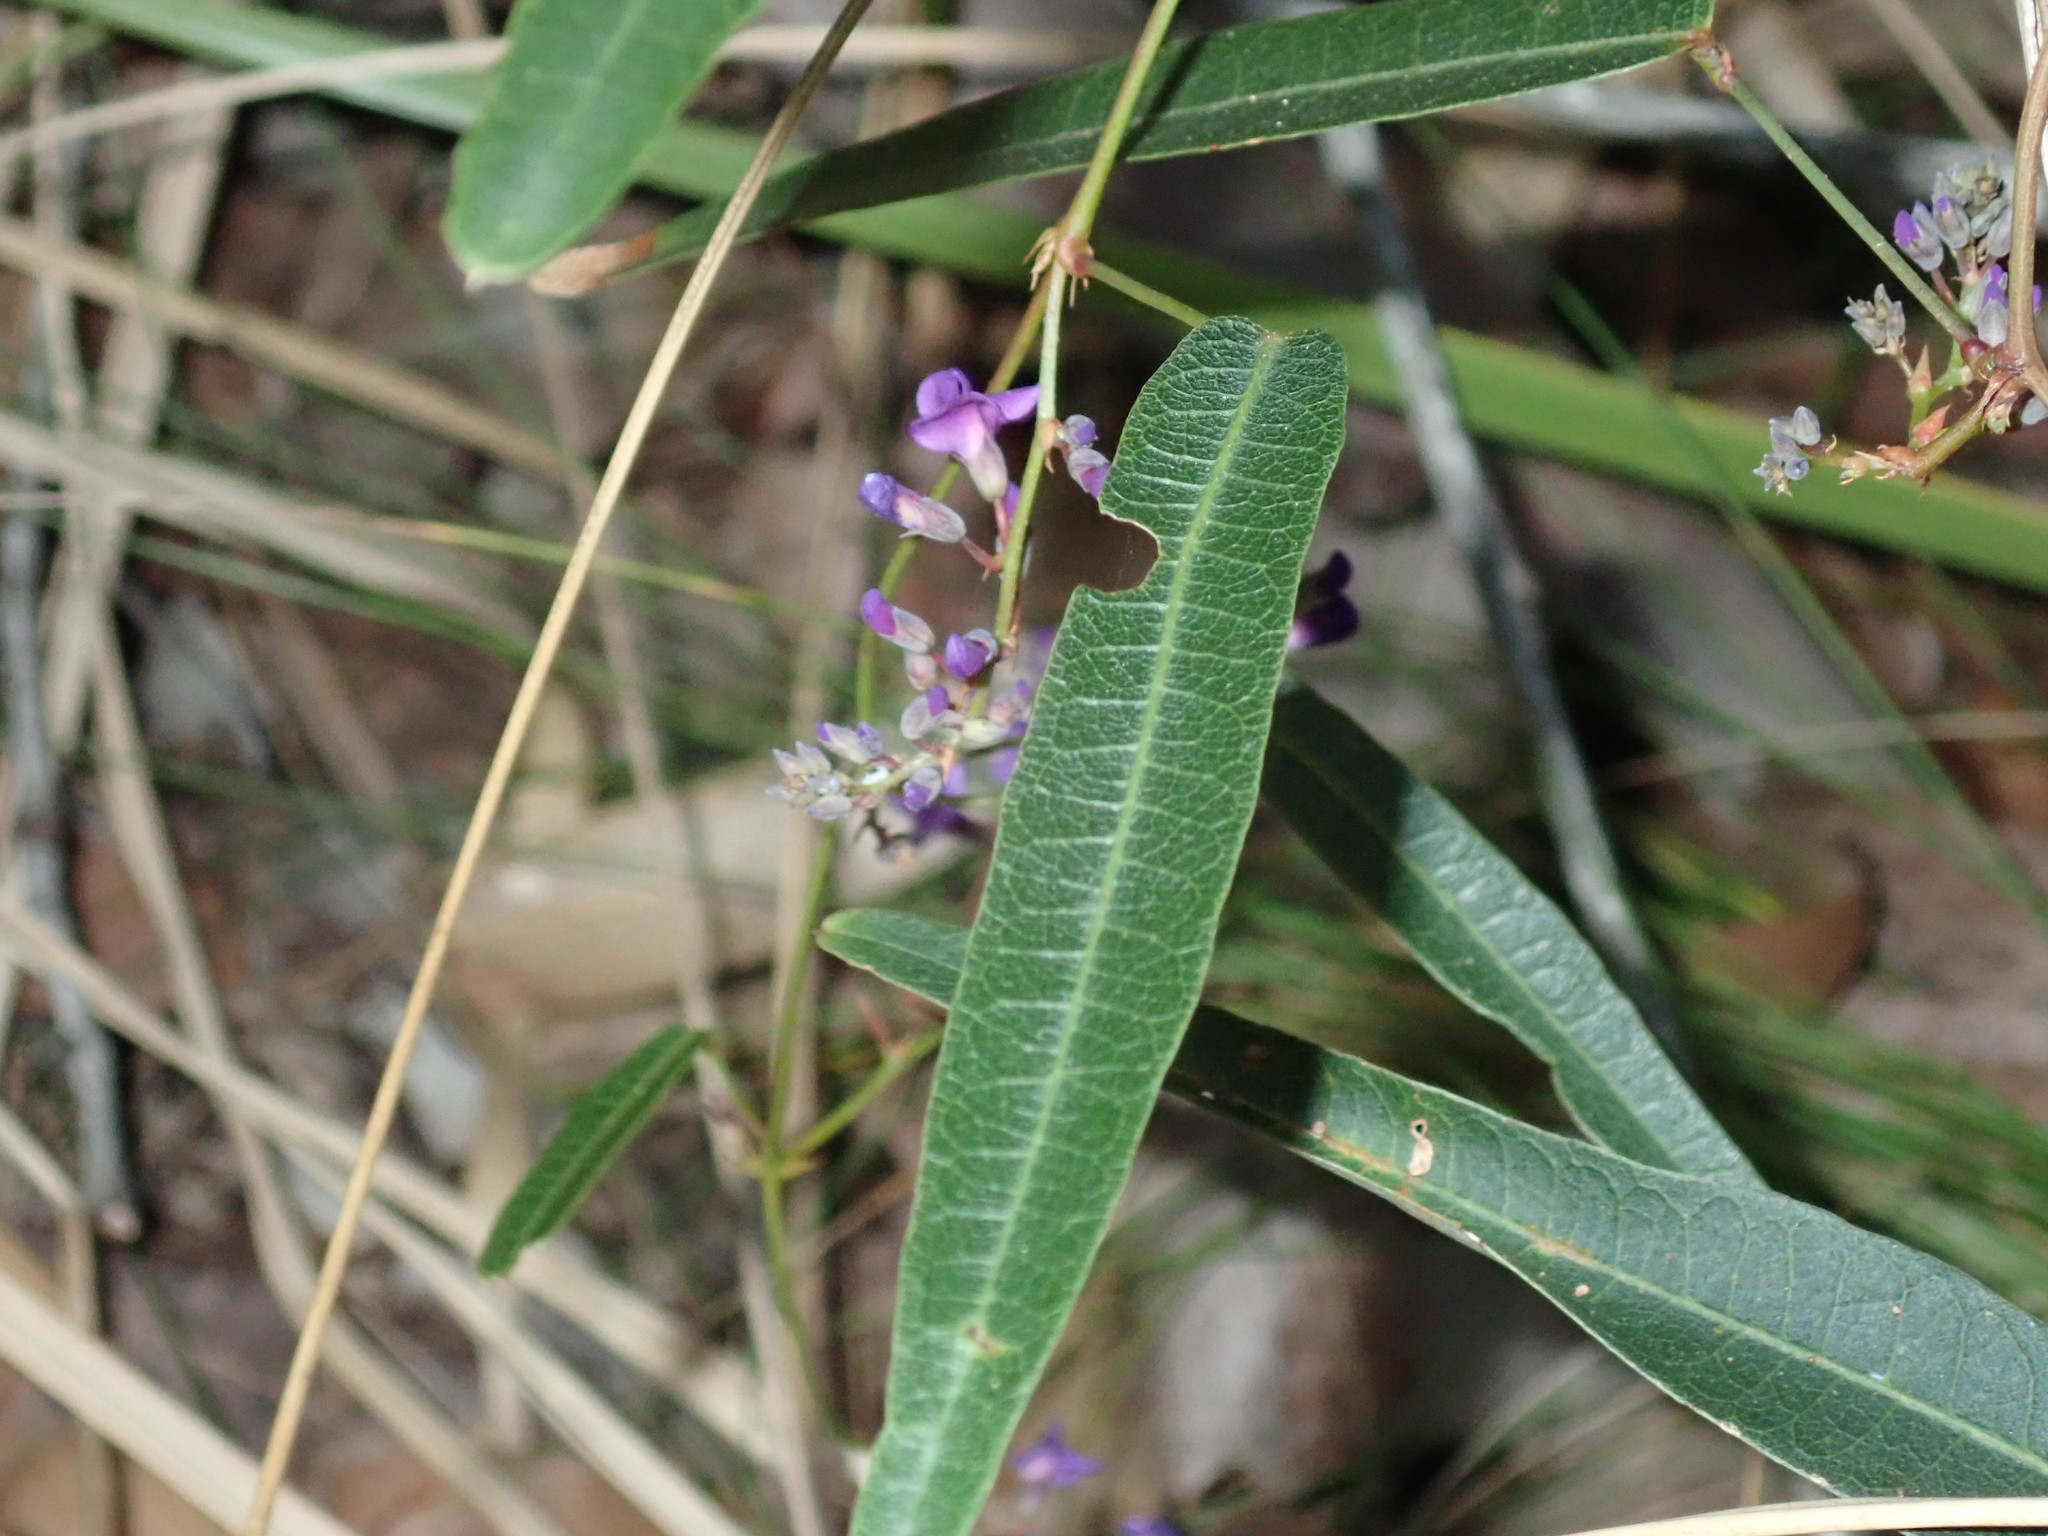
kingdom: Plantae
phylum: Tracheophyta
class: Magnoliopsida
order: Fabales
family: Fabaceae
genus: Hardenbergia
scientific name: Hardenbergia violacea
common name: Coral-pea
